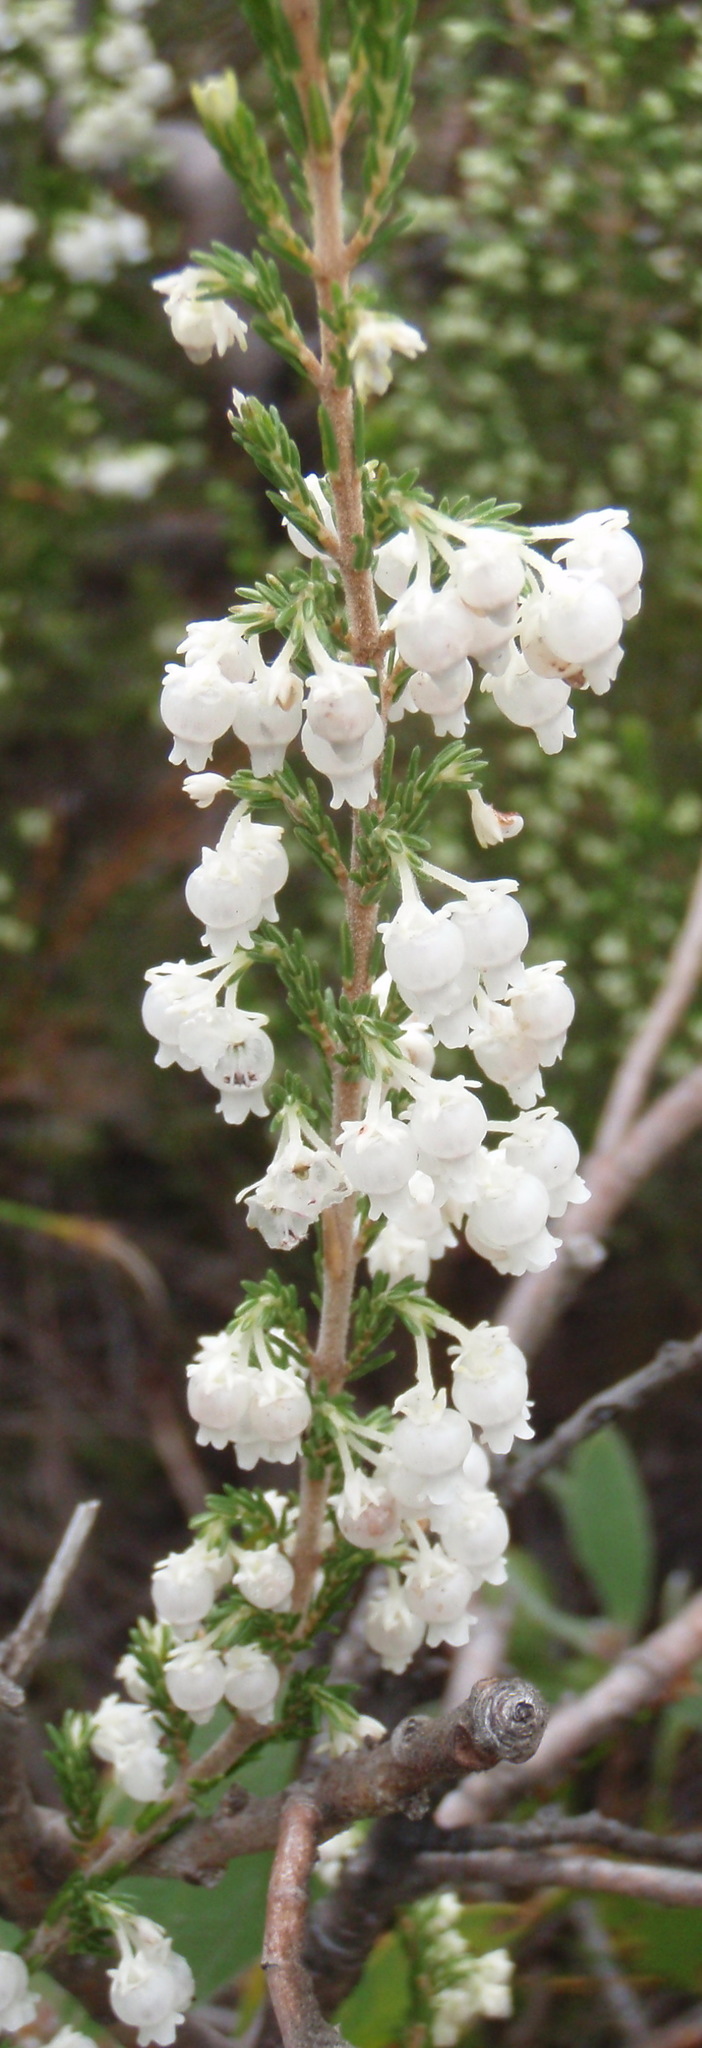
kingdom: Plantae
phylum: Tracheophyta
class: Magnoliopsida
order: Ericales
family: Ericaceae
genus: Erica
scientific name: Erica glomiflora
